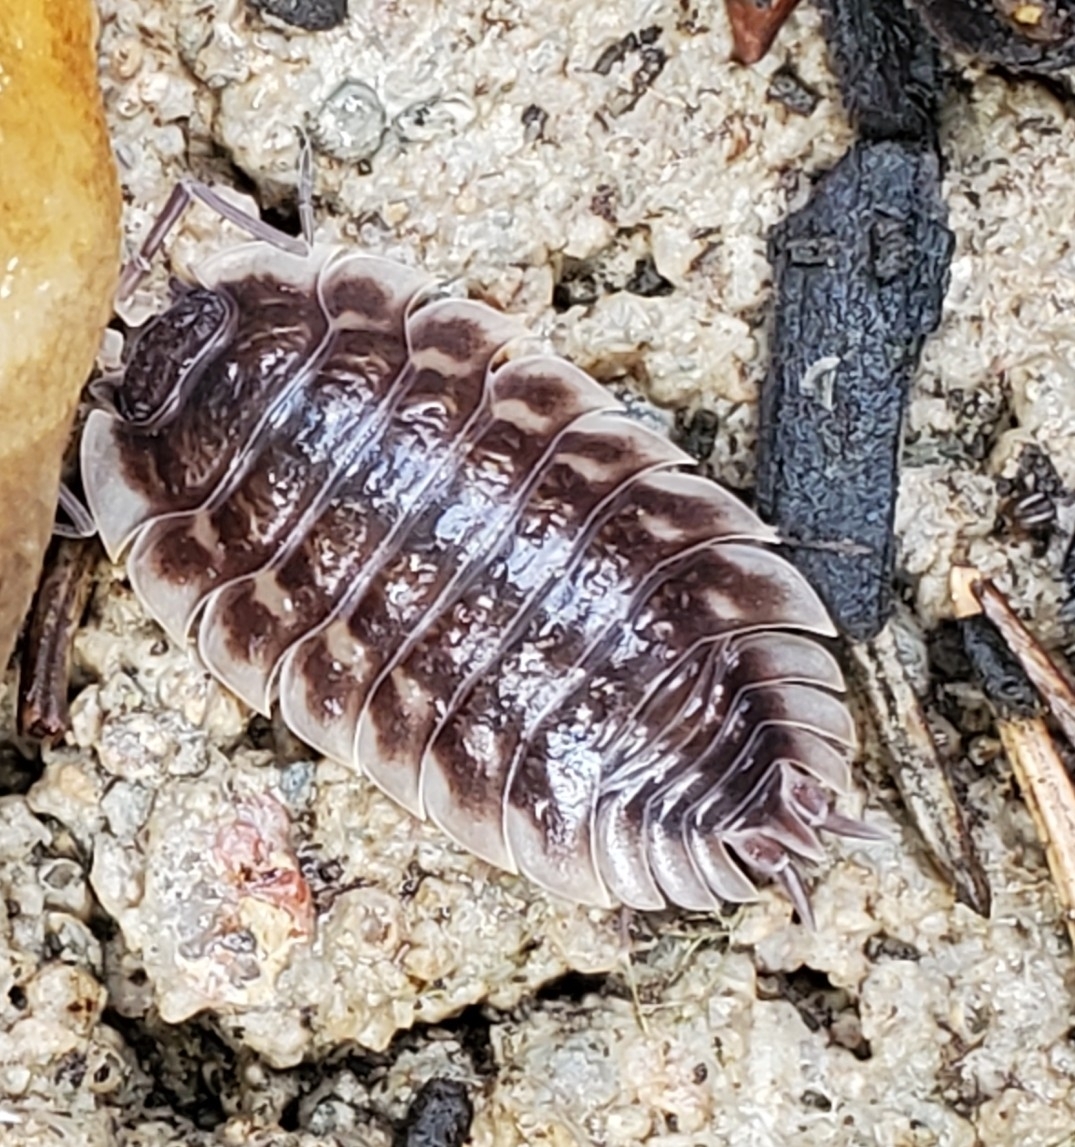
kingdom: Animalia
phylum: Arthropoda
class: Malacostraca
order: Isopoda
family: Oniscidae
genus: Oniscus
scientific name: Oniscus asellus
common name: Common shiny woodlouse
